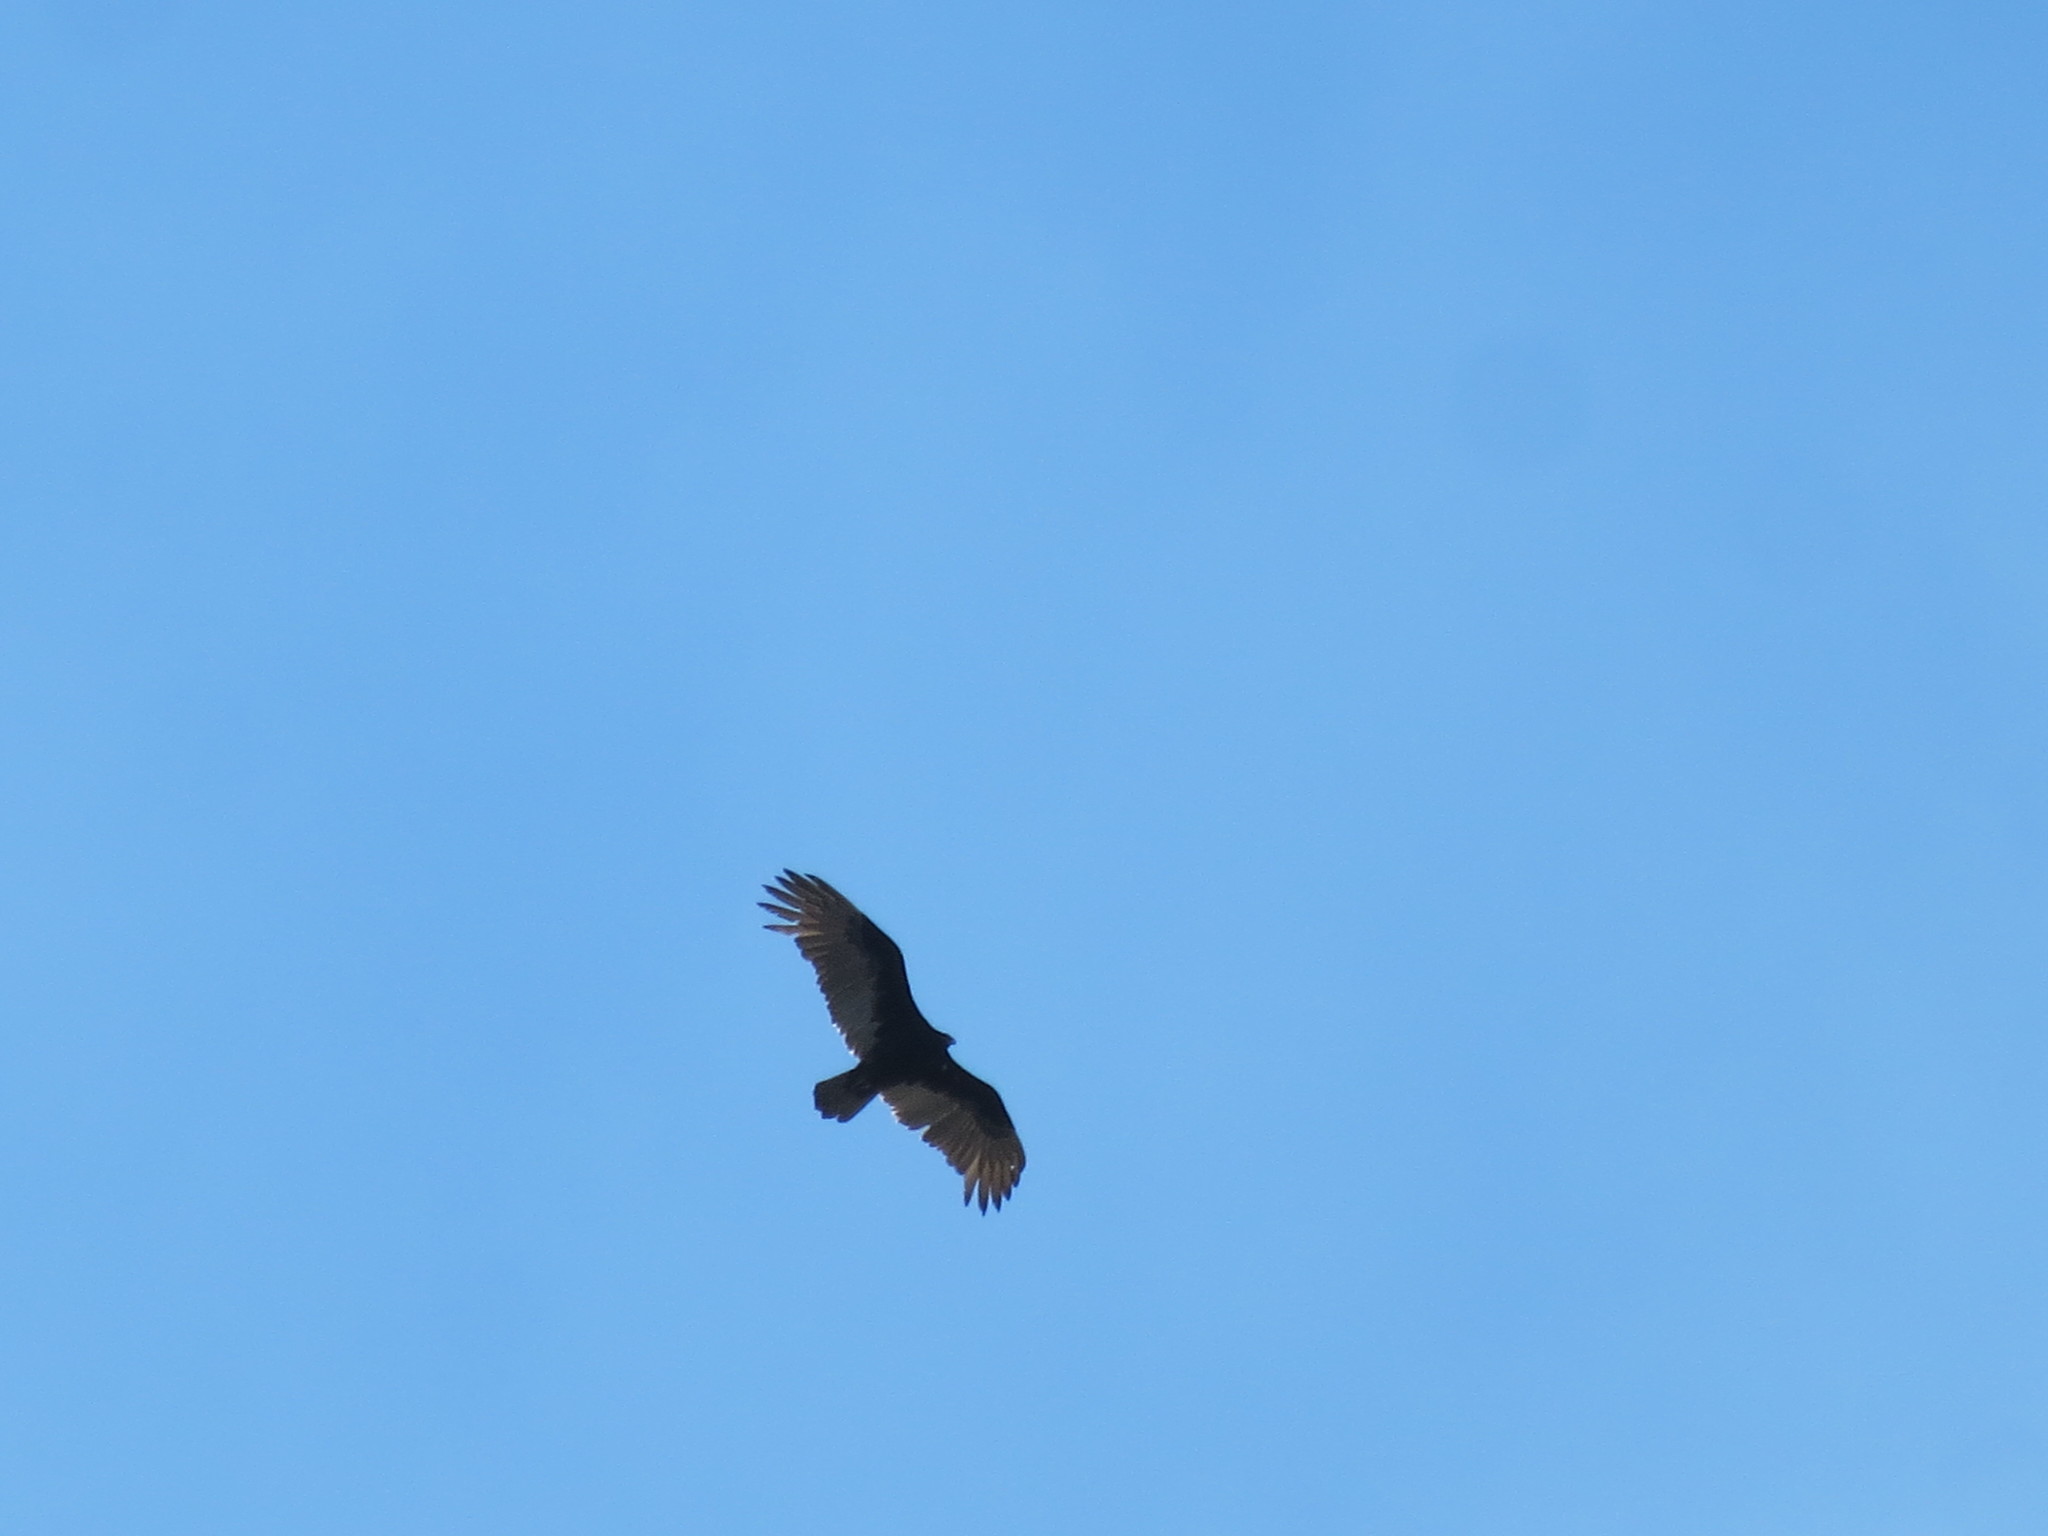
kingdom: Animalia
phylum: Chordata
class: Aves
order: Accipitriformes
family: Cathartidae
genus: Cathartes
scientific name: Cathartes aura
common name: Turkey vulture
